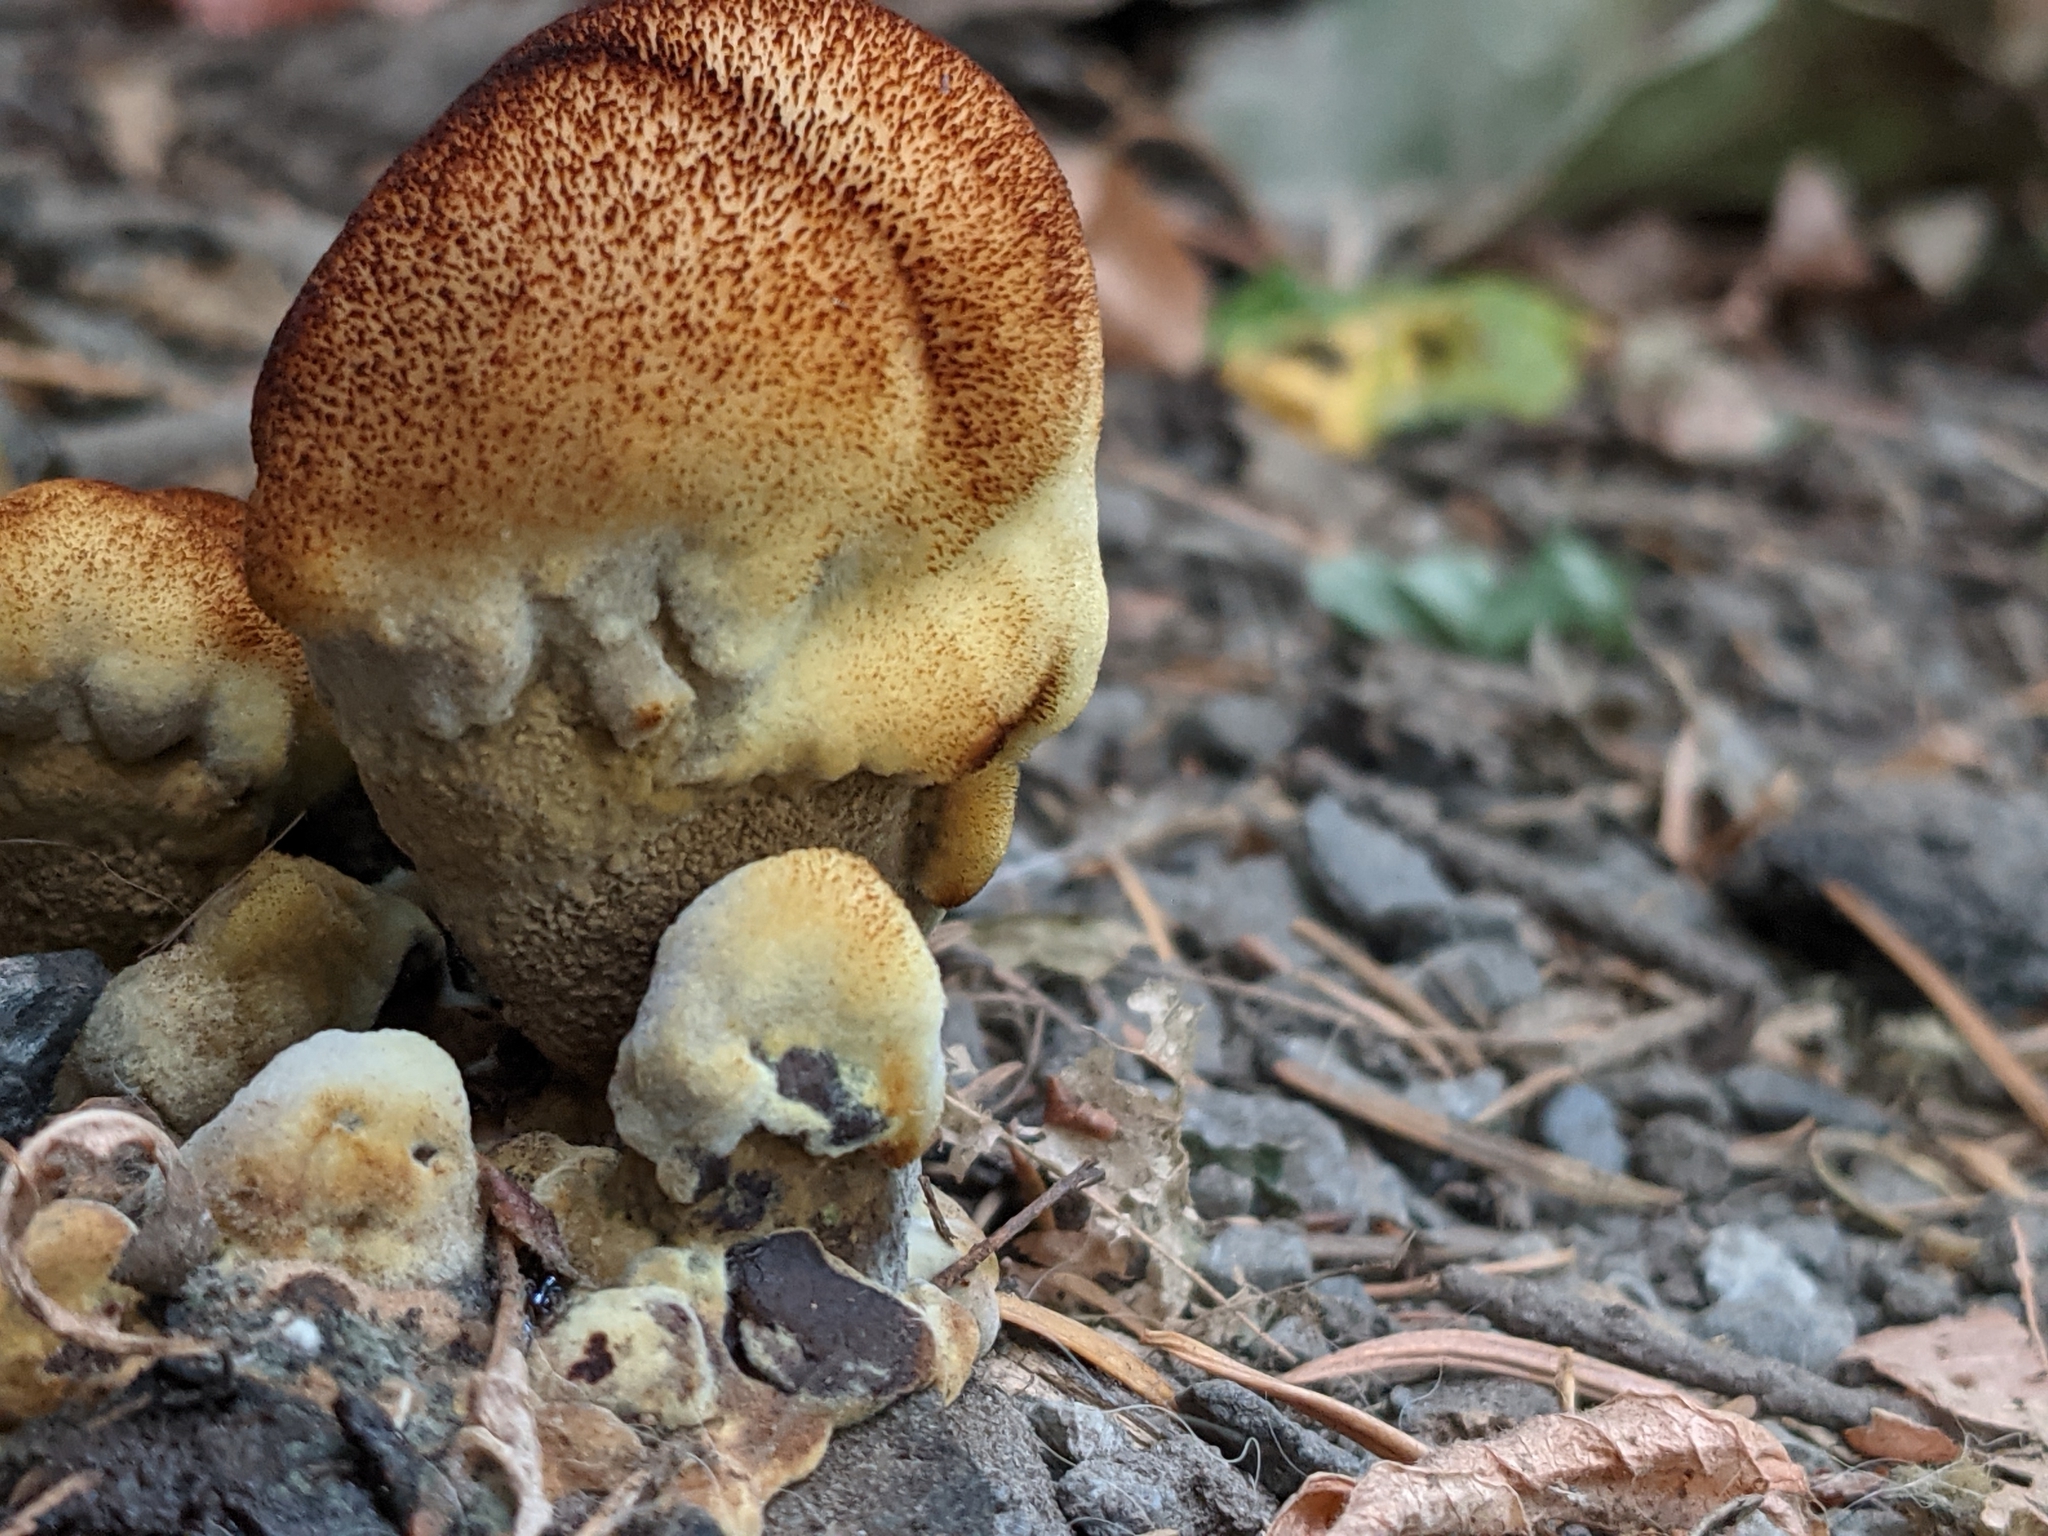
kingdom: Fungi
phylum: Basidiomycota
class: Agaricomycetes
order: Polyporales
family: Laetiporaceae
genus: Phaeolus
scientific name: Phaeolus schweinitzii
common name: Dyer's mazegill
